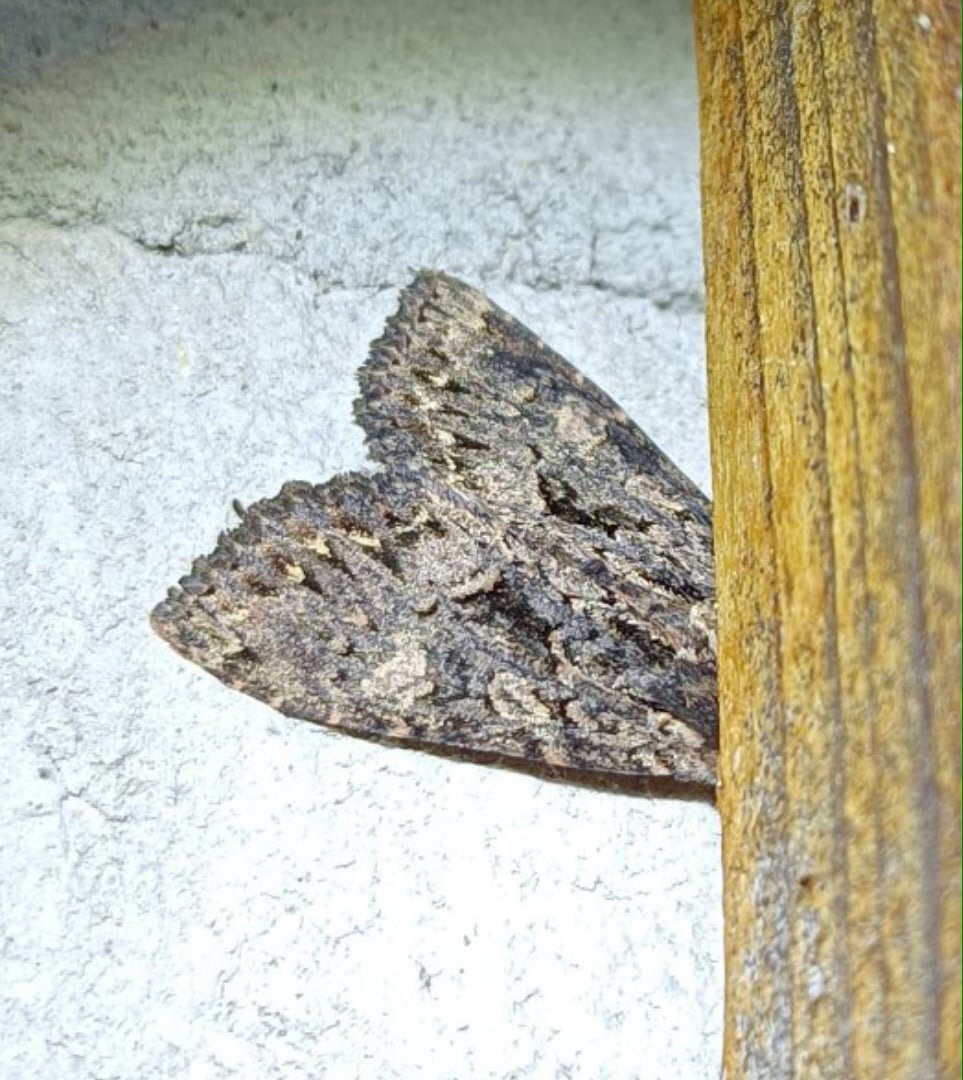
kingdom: Animalia
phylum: Arthropoda
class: Insecta
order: Lepidoptera
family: Noctuidae
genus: Mniotype
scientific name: Mniotype satura
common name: Beautiful arches
